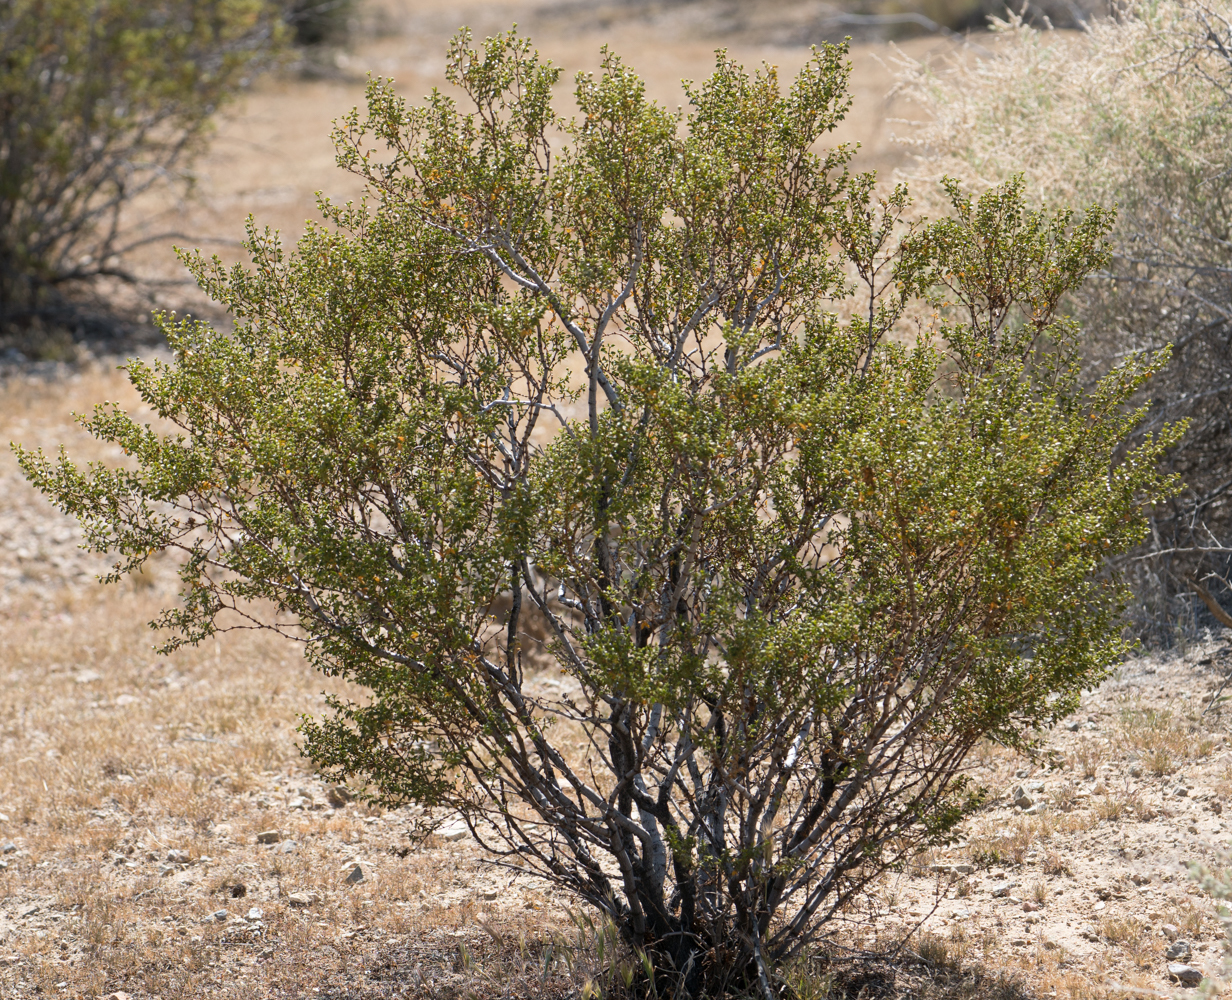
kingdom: Plantae
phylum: Tracheophyta
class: Magnoliopsida
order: Zygophyllales
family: Zygophyllaceae
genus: Larrea
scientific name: Larrea tridentata
